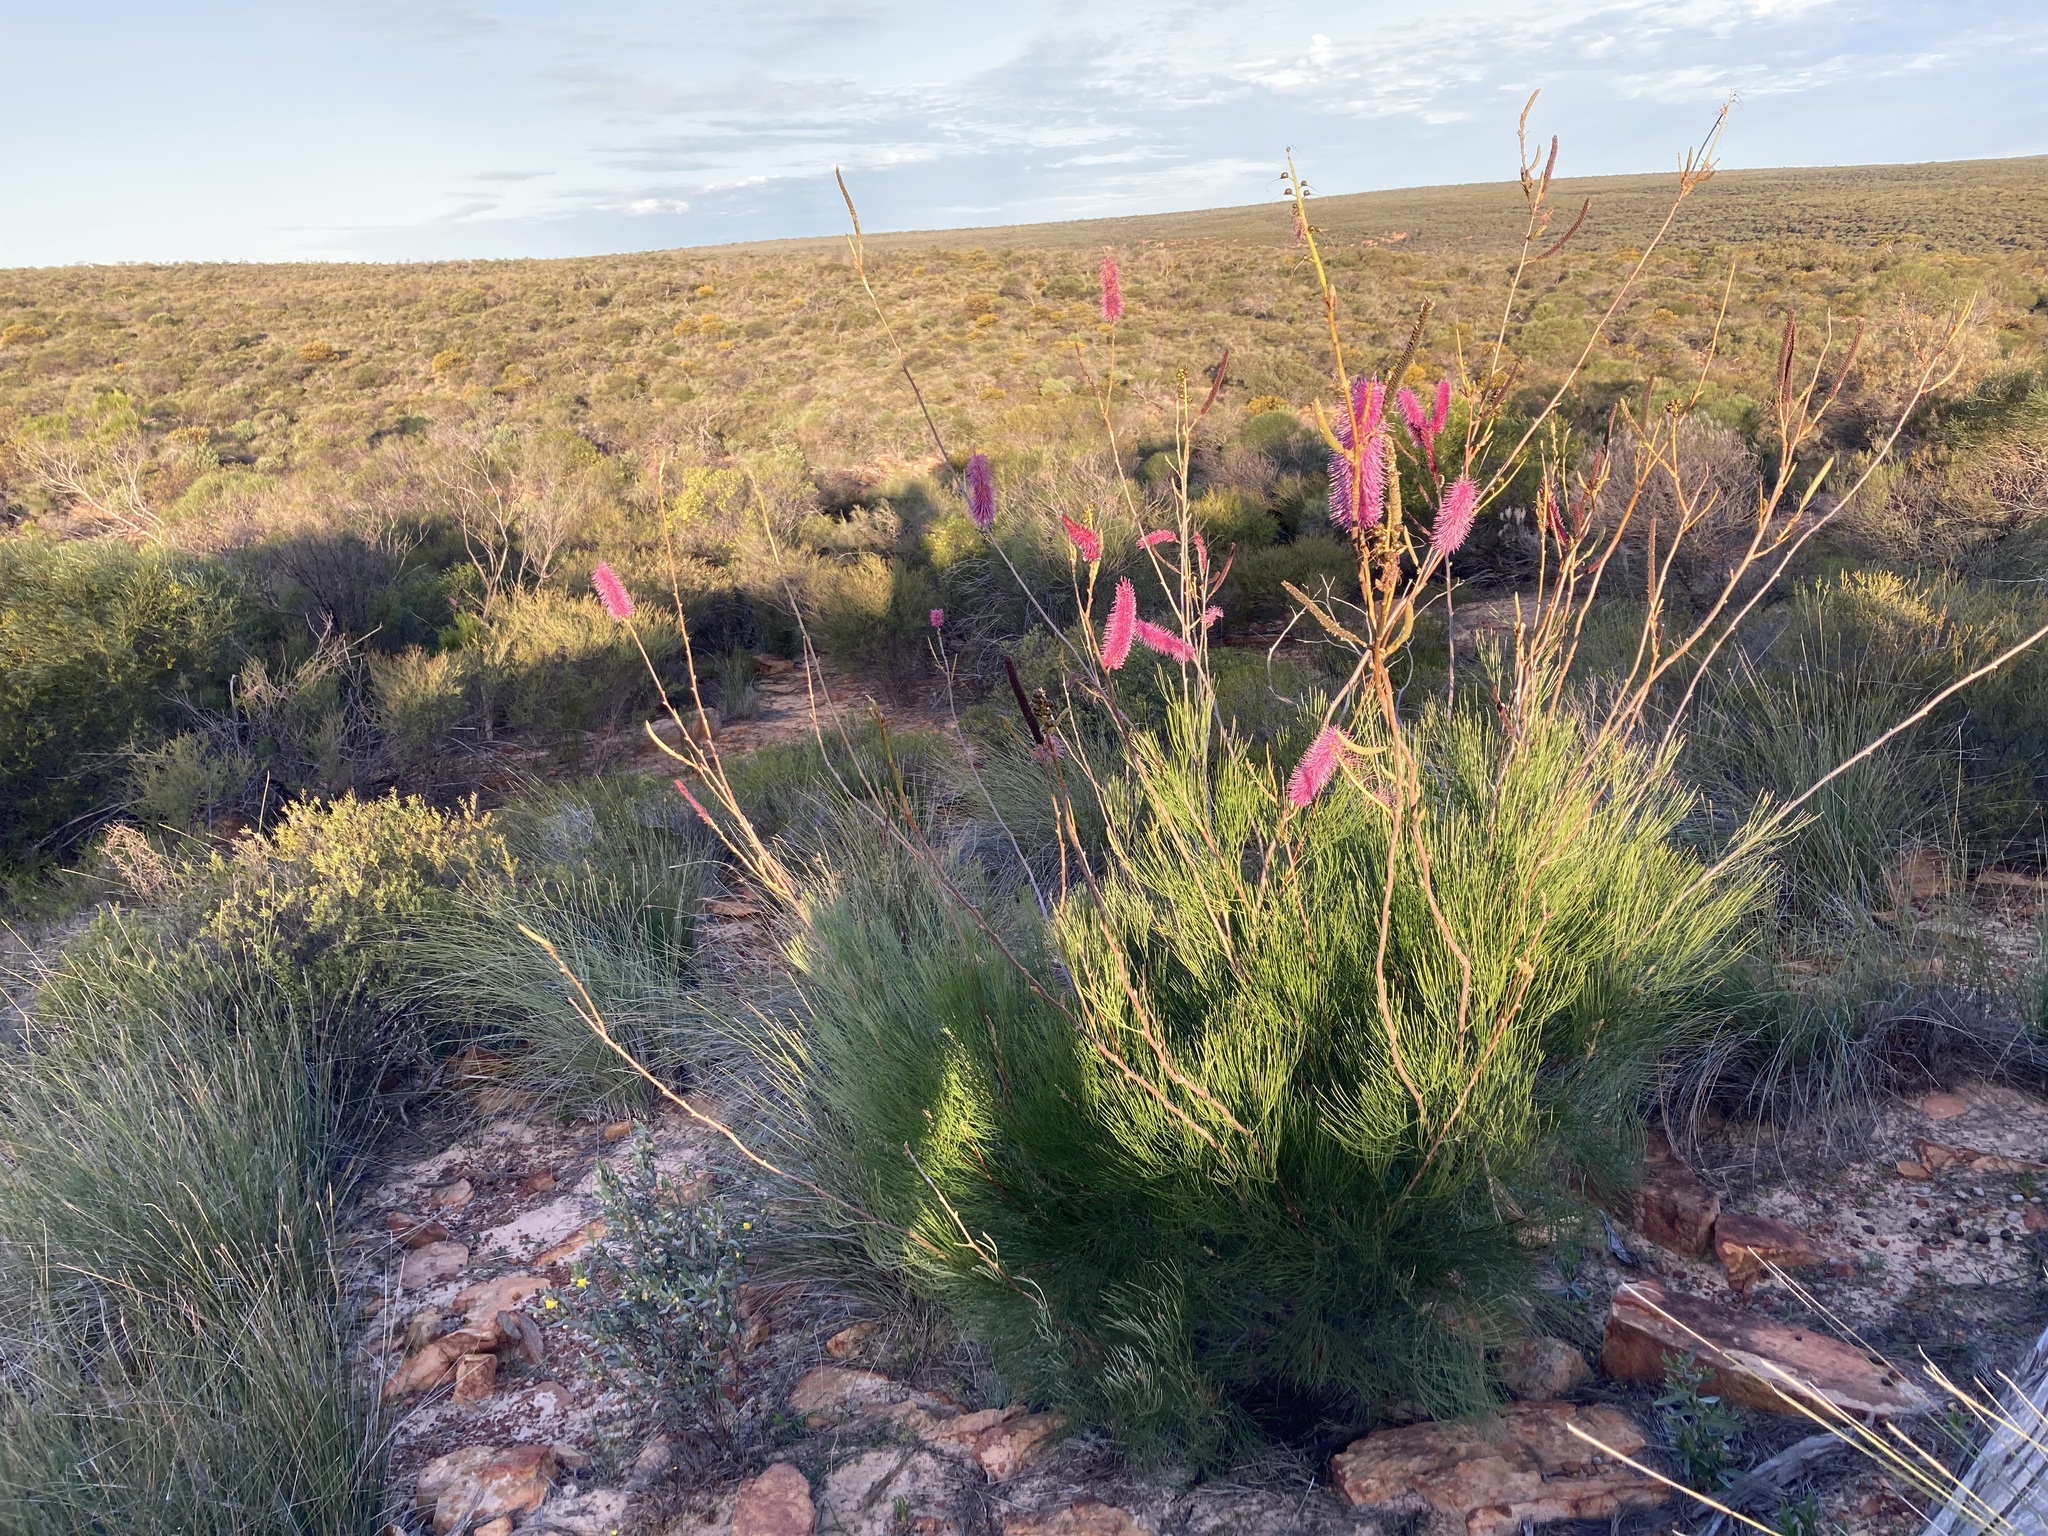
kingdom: Plantae
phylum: Tracheophyta
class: Magnoliopsida
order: Proteales
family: Proteaceae
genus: Grevillea
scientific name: Grevillea petrophiloides
